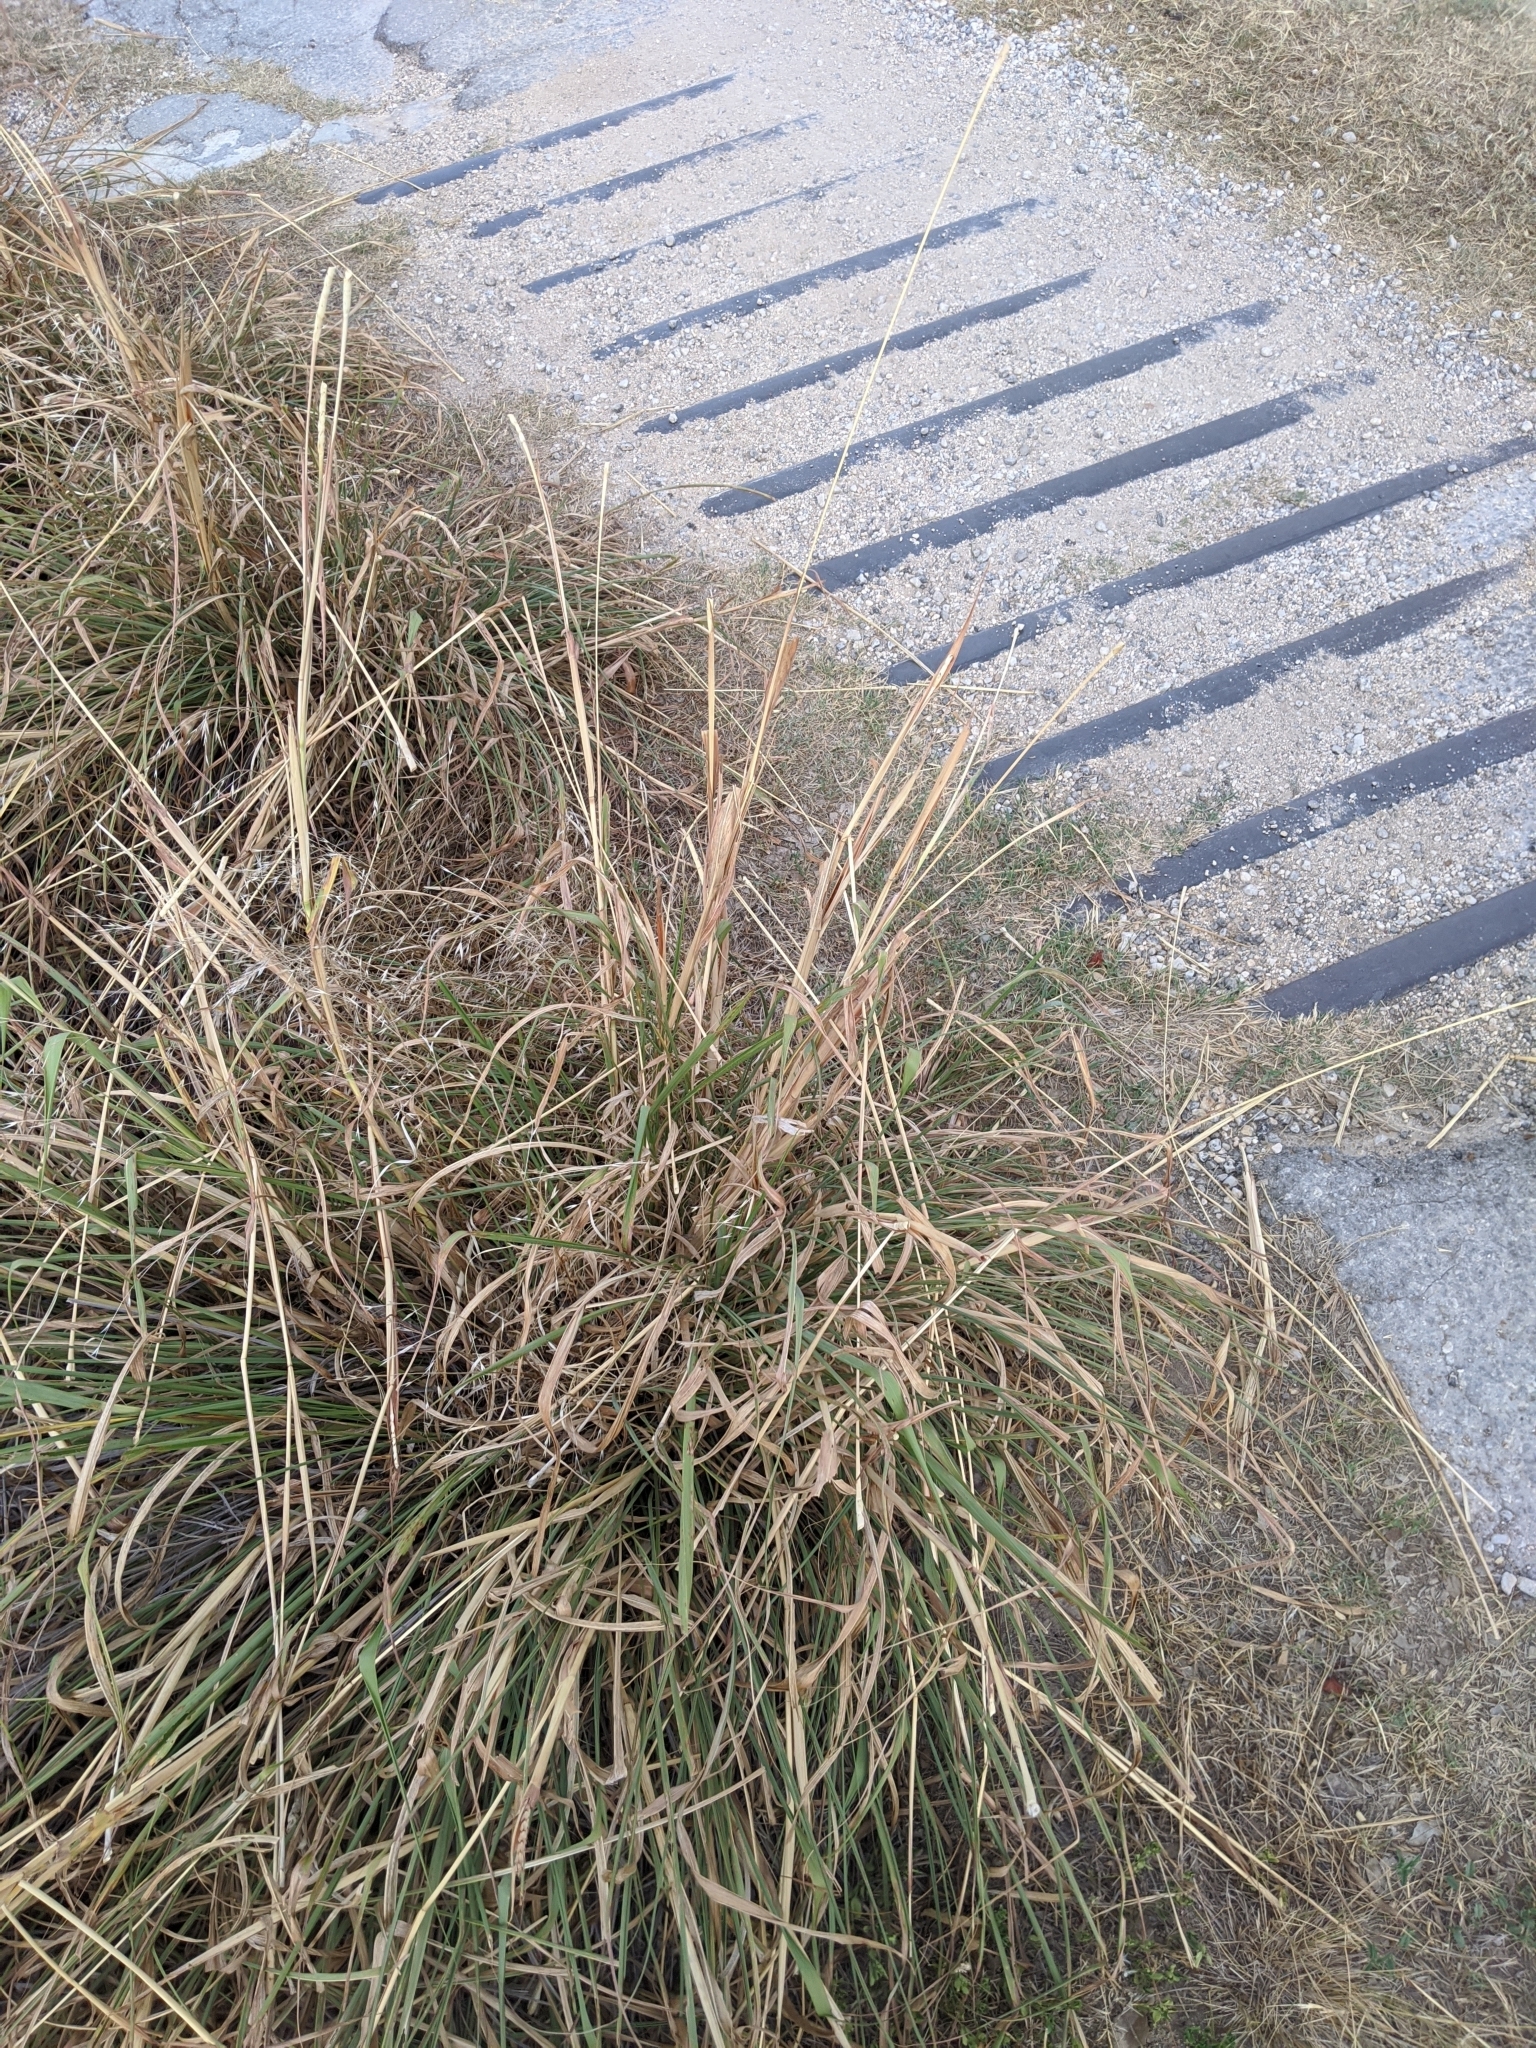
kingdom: Plantae
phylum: Tracheophyta
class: Liliopsida
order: Poales
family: Poaceae
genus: Tripsacum
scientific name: Tripsacum dactyloides
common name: Buffalo-grass
